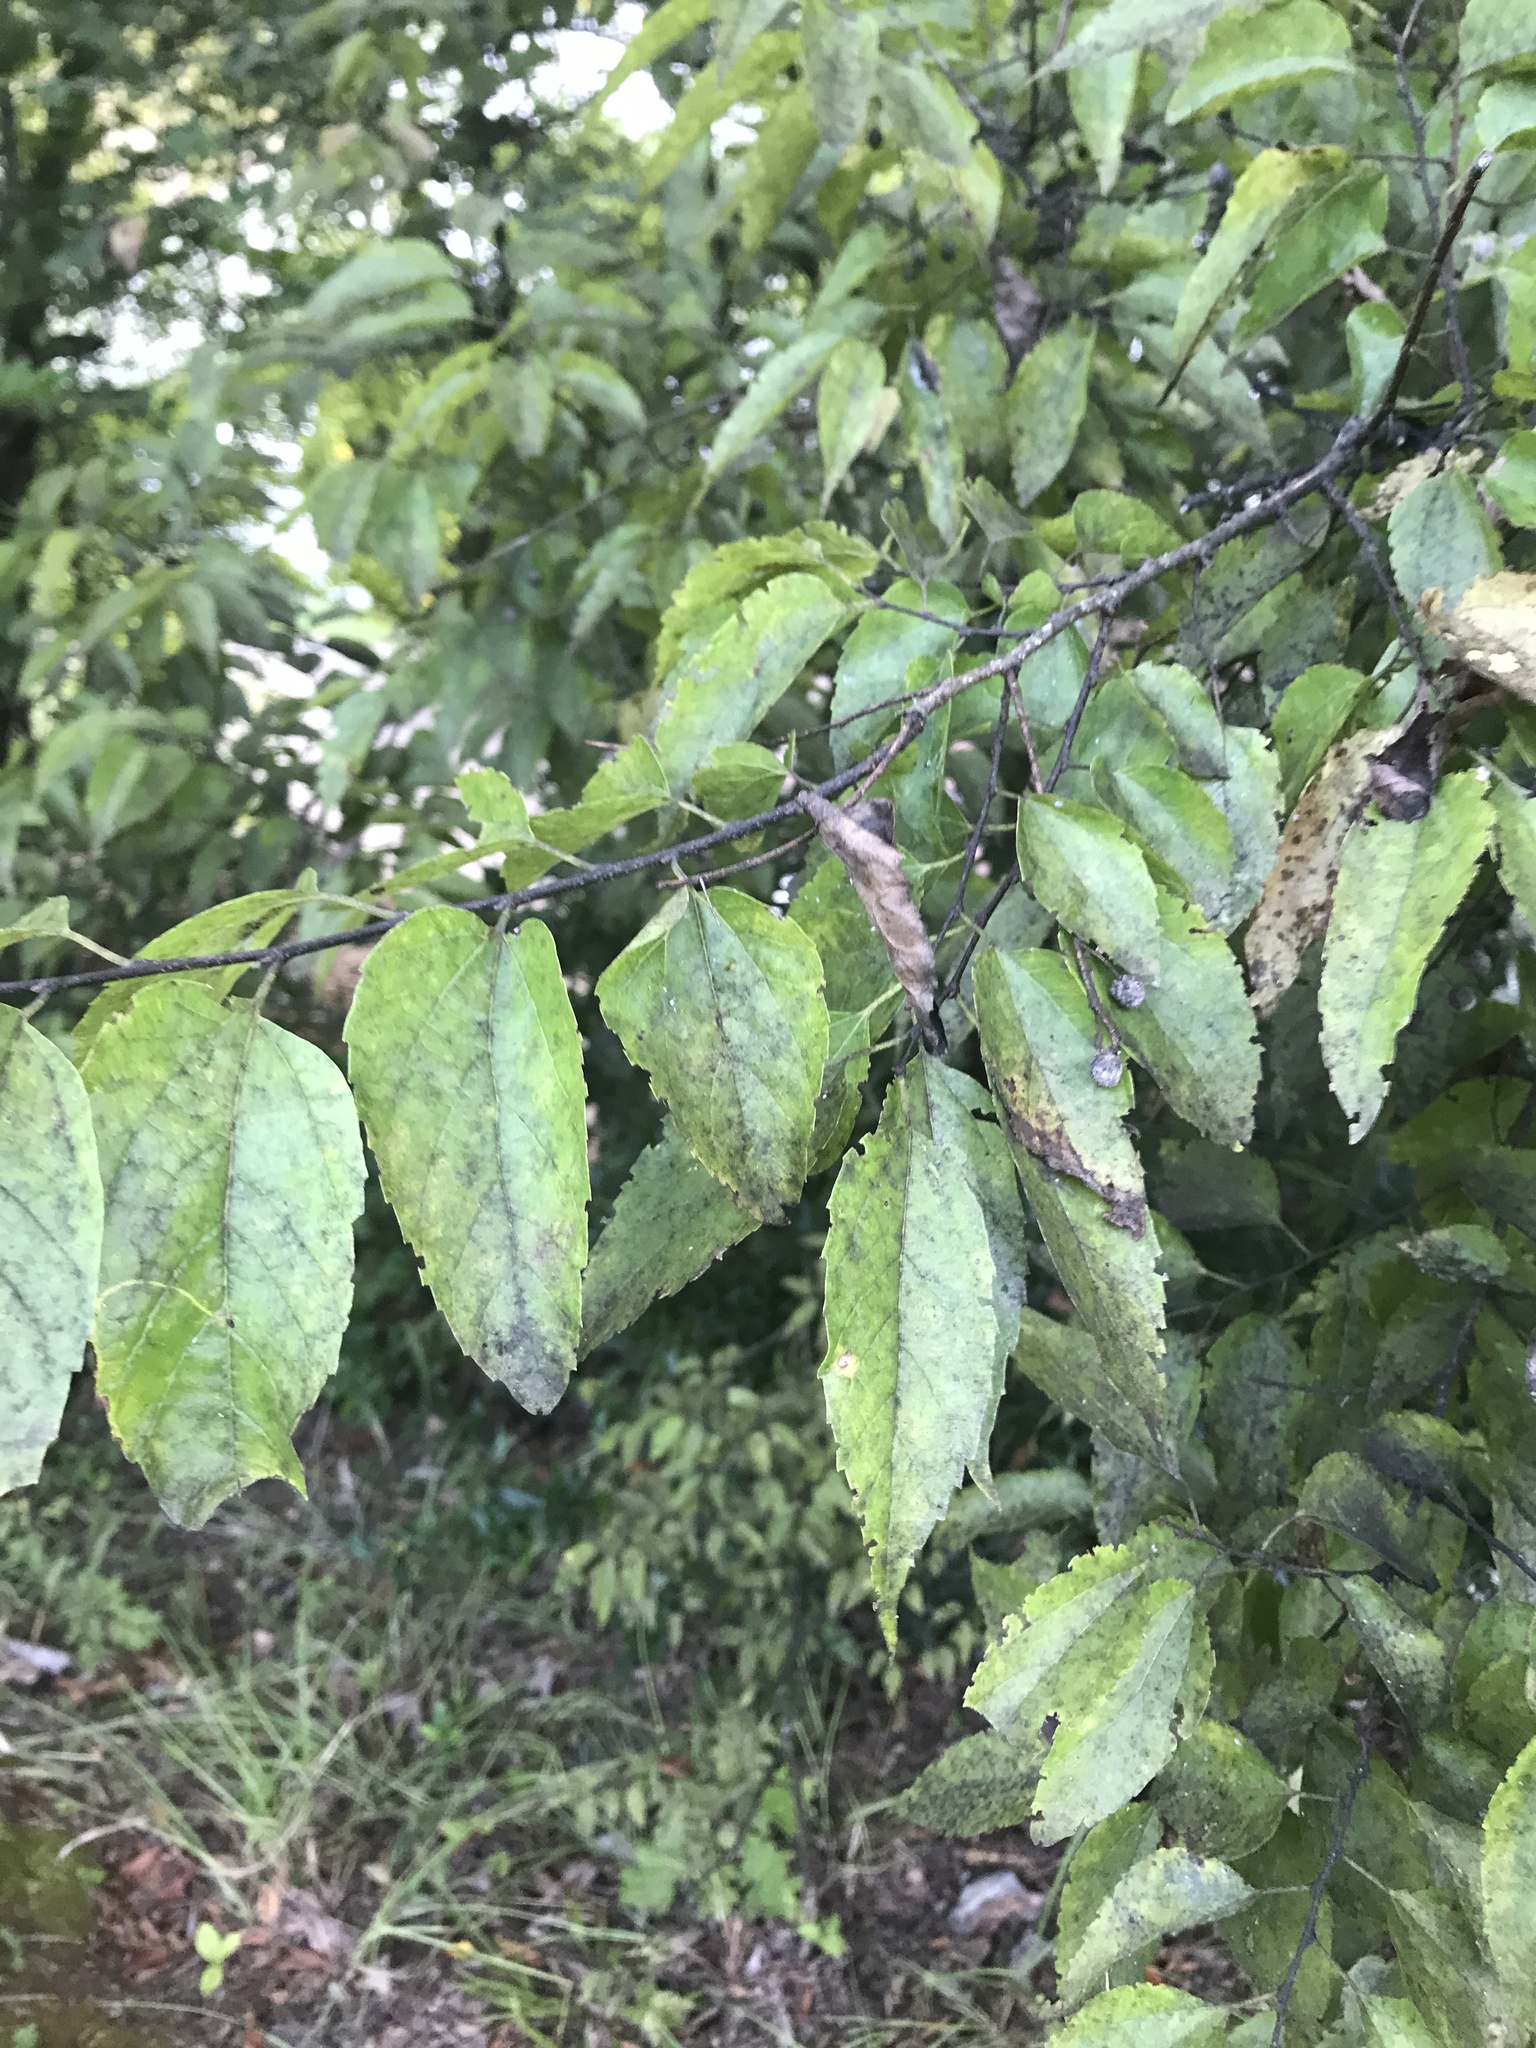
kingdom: Plantae
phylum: Tracheophyta
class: Magnoliopsida
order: Rosales
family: Cannabaceae
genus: Celtis
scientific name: Celtis laevigata
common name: Sugarberry
